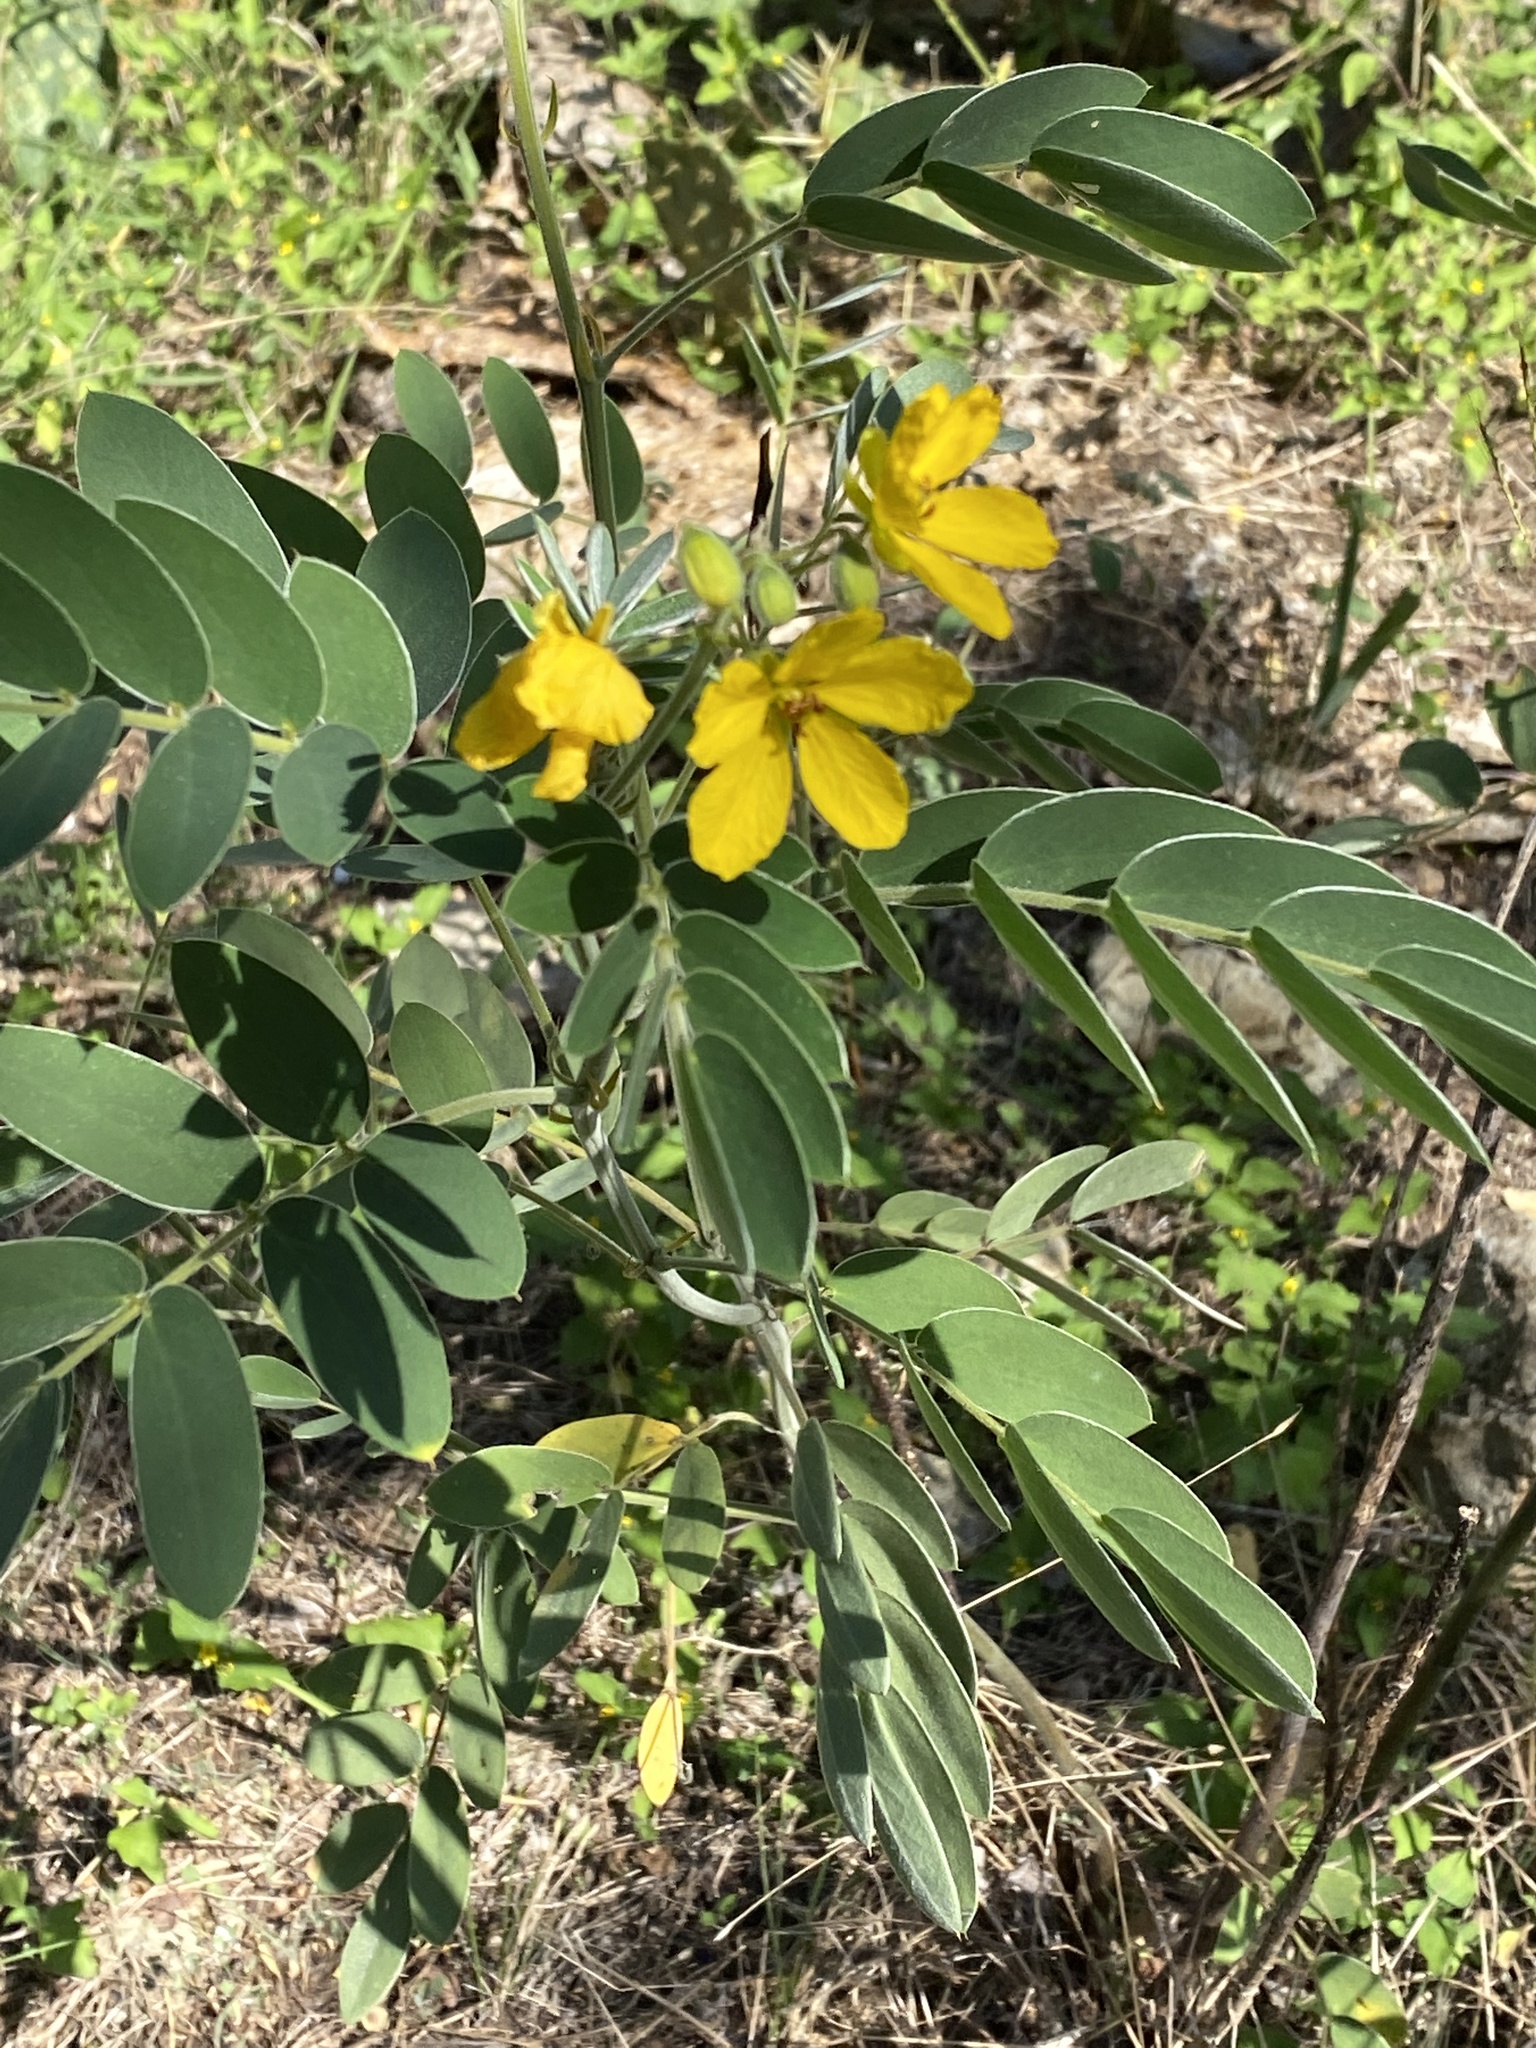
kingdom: Plantae
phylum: Tracheophyta
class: Magnoliopsida
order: Fabales
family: Fabaceae
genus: Senna
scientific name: Senna lindheimeriana
